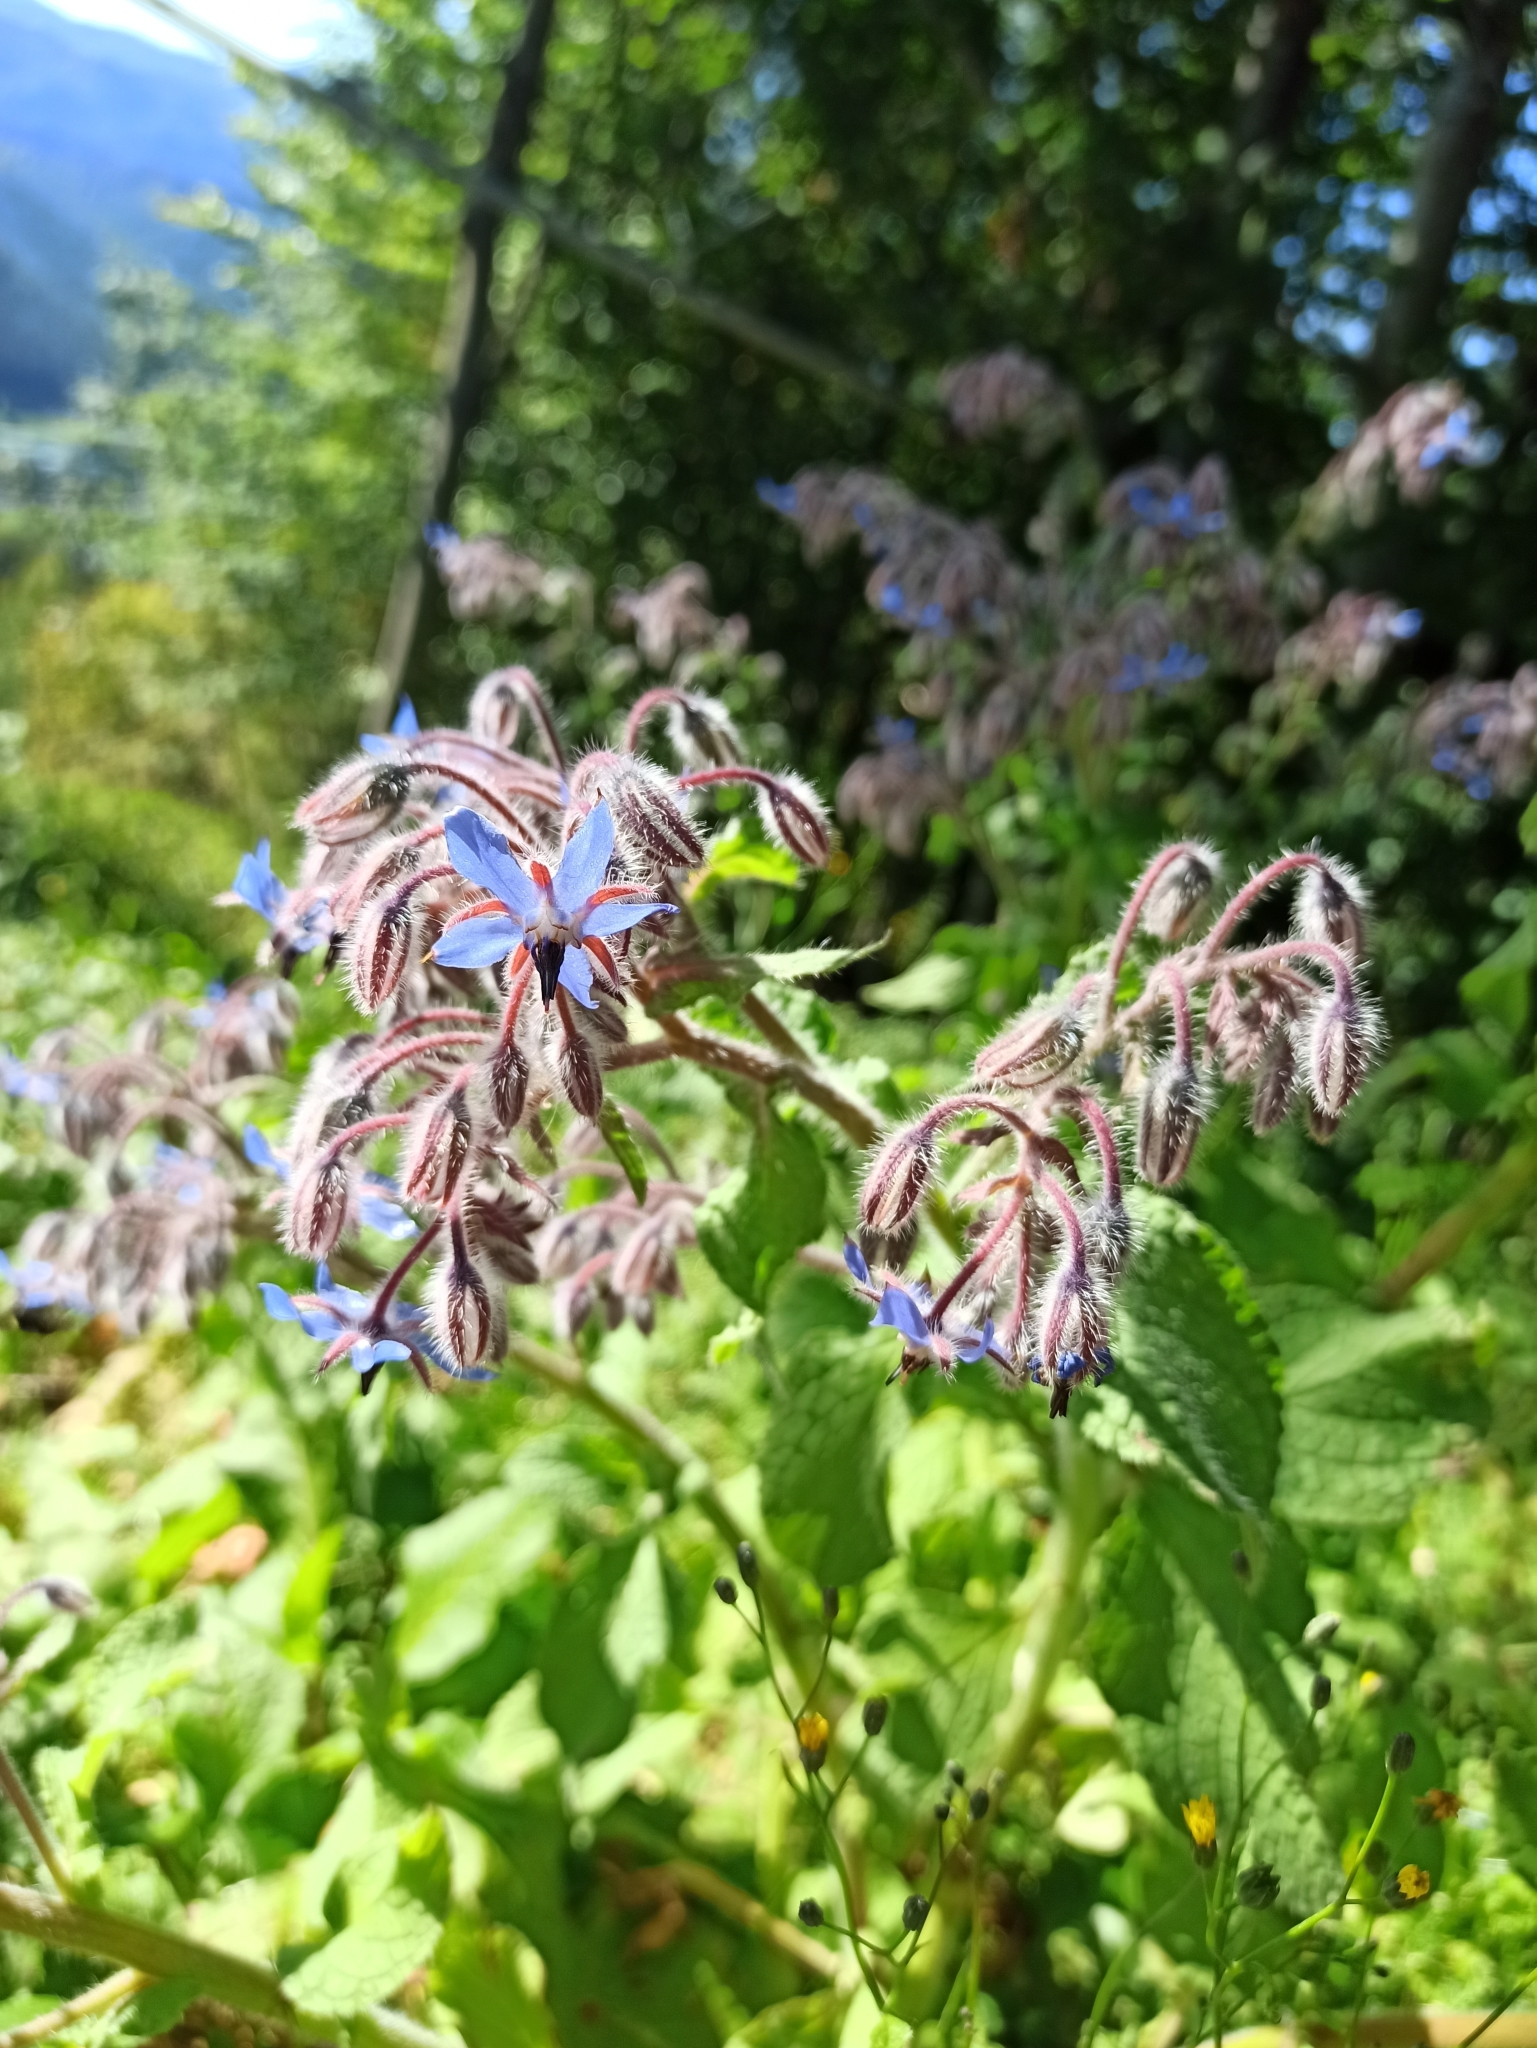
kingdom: Plantae
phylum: Tracheophyta
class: Magnoliopsida
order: Boraginales
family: Boraginaceae
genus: Borago
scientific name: Borago officinalis
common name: Borage
